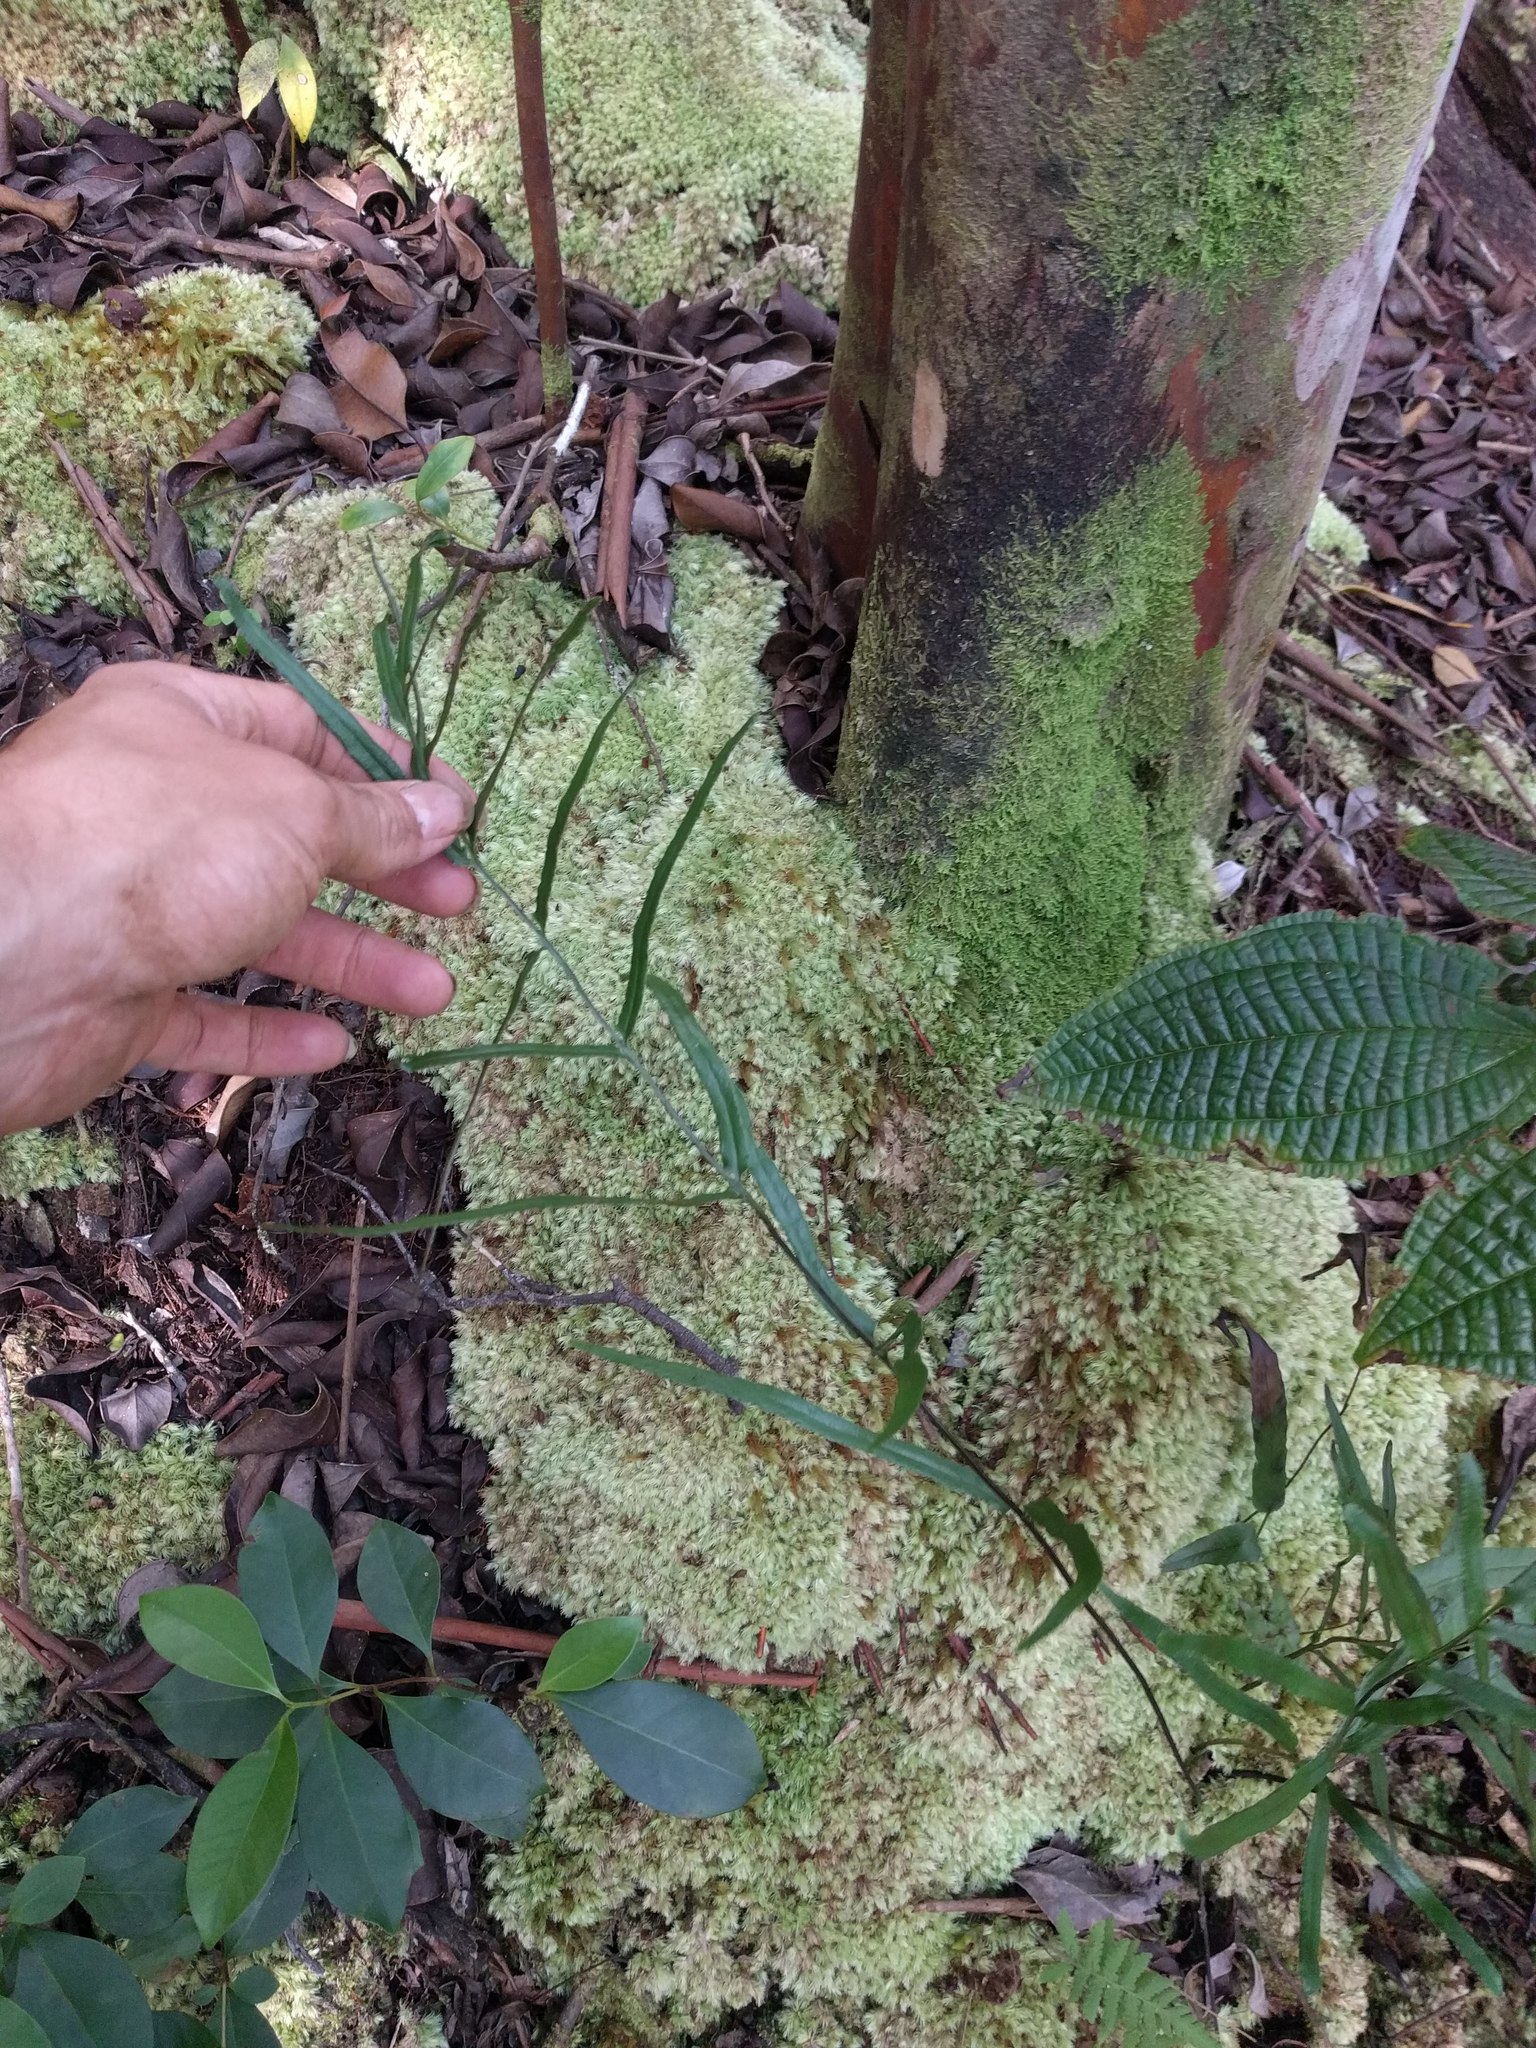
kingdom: Plantae
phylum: Tracheophyta
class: Polypodiopsida
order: Polypodiales
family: Lindsaeaceae
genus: Lindsaea
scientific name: Lindsaea ensifolia
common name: Graceful necklace fern
